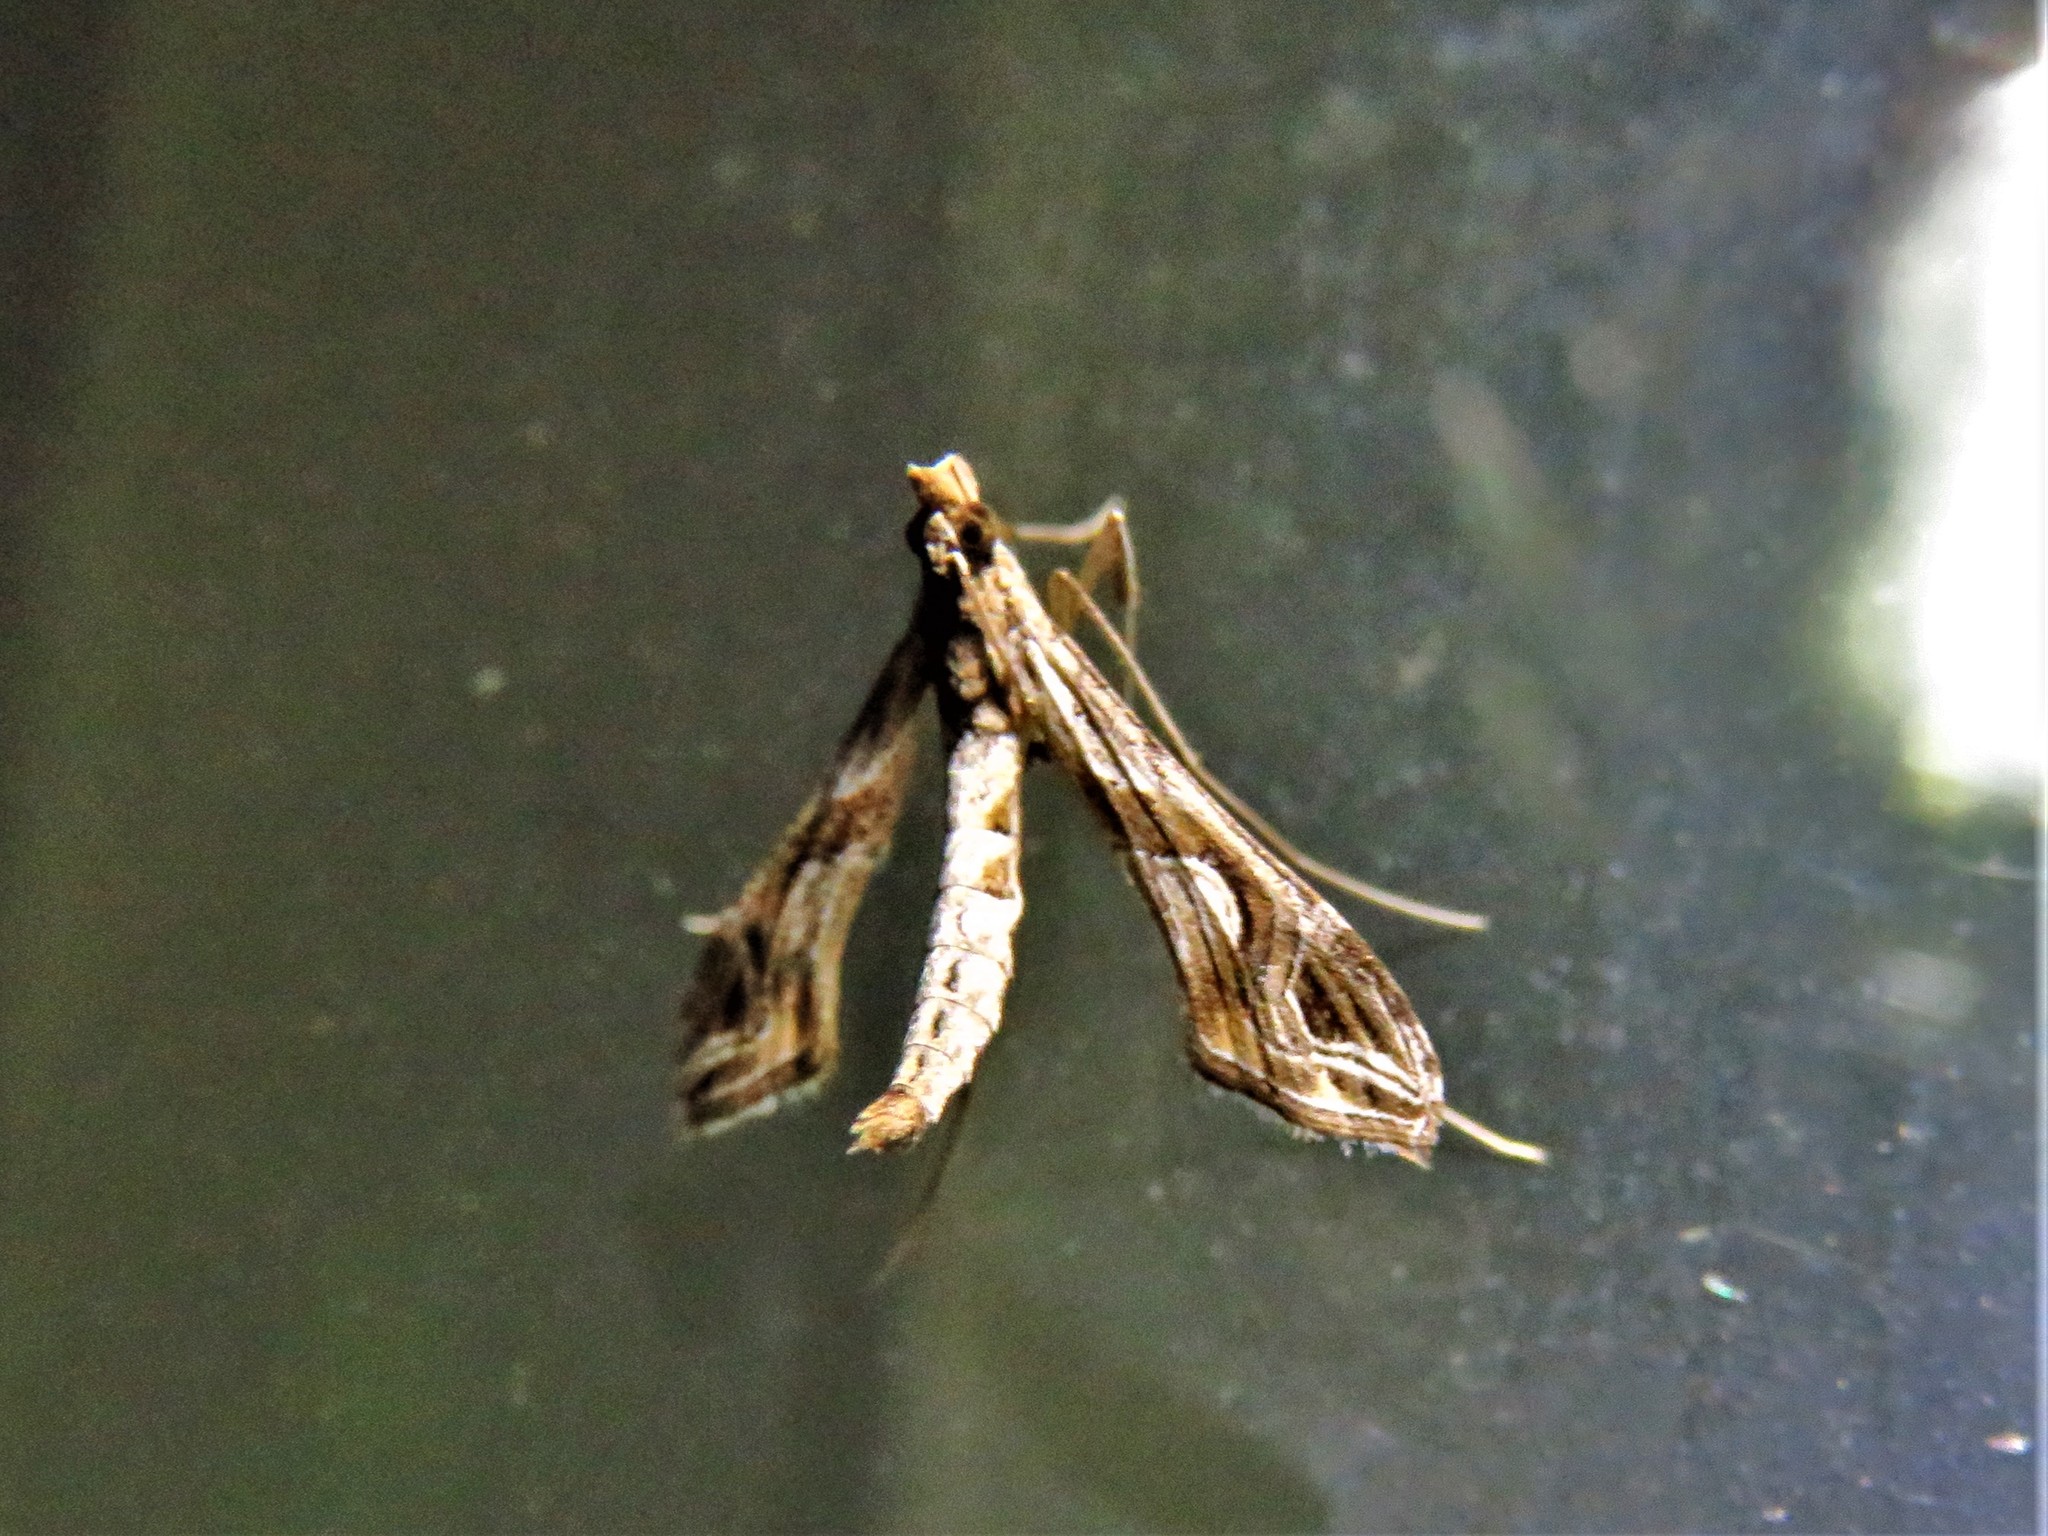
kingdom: Animalia
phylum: Arthropoda
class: Insecta
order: Lepidoptera
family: Crambidae
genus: Lineodes
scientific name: Lineodes integra
